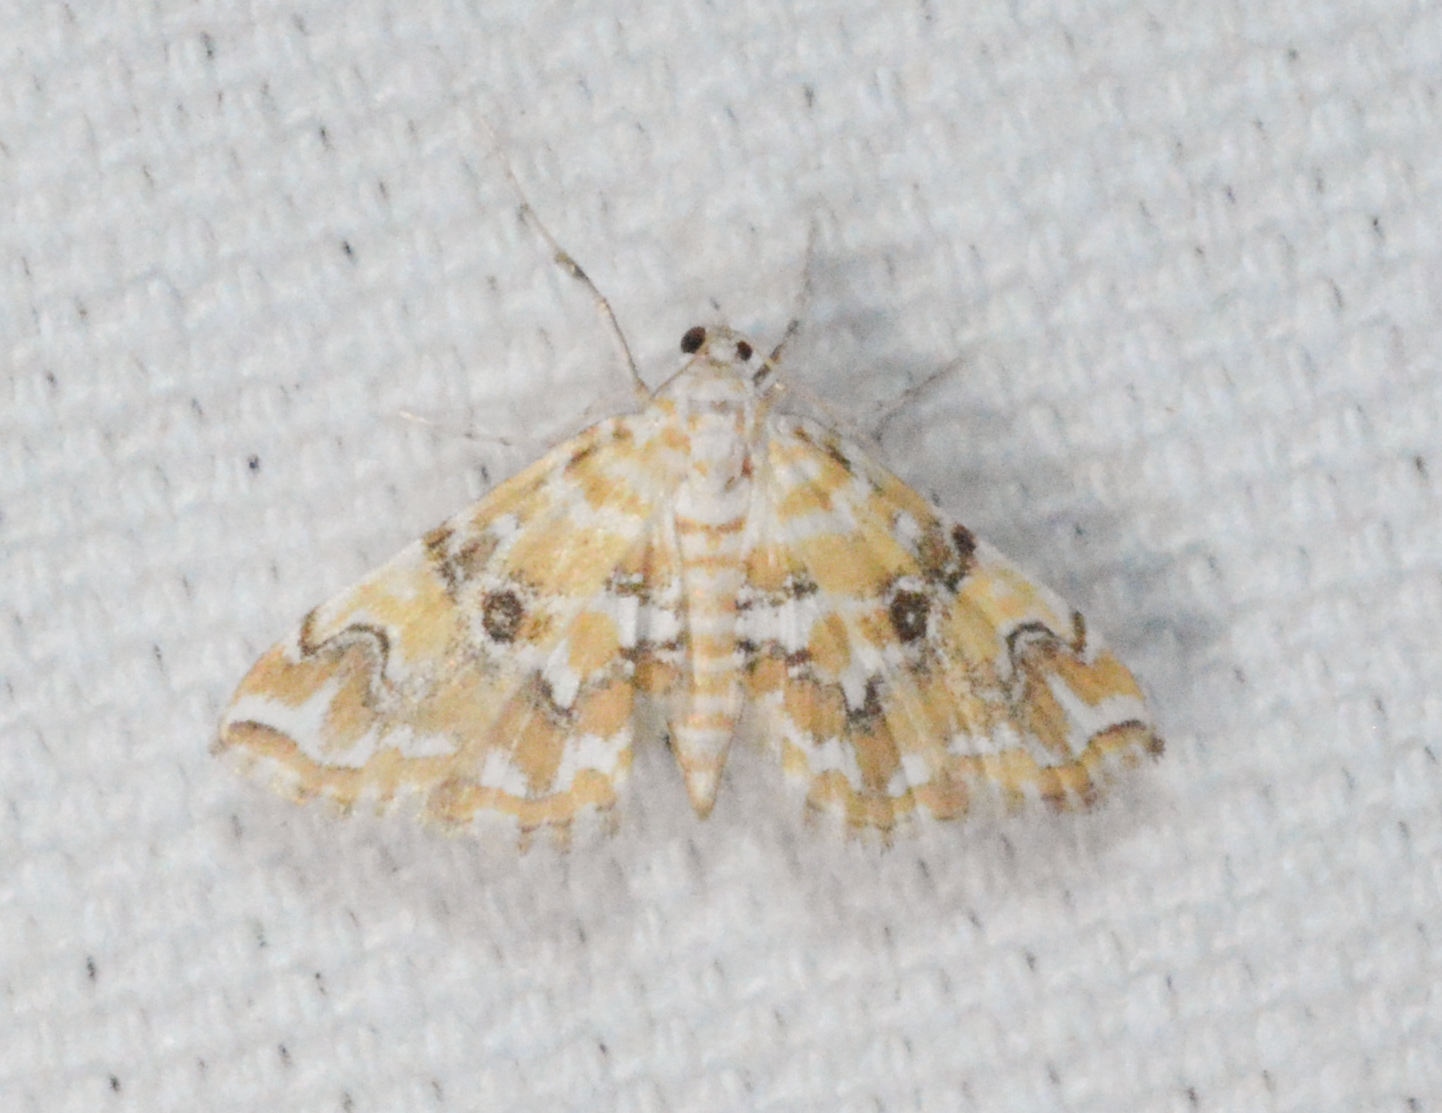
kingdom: Animalia
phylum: Arthropoda
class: Insecta
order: Lepidoptera
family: Crambidae
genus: Elophila
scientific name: Elophila faulalis
